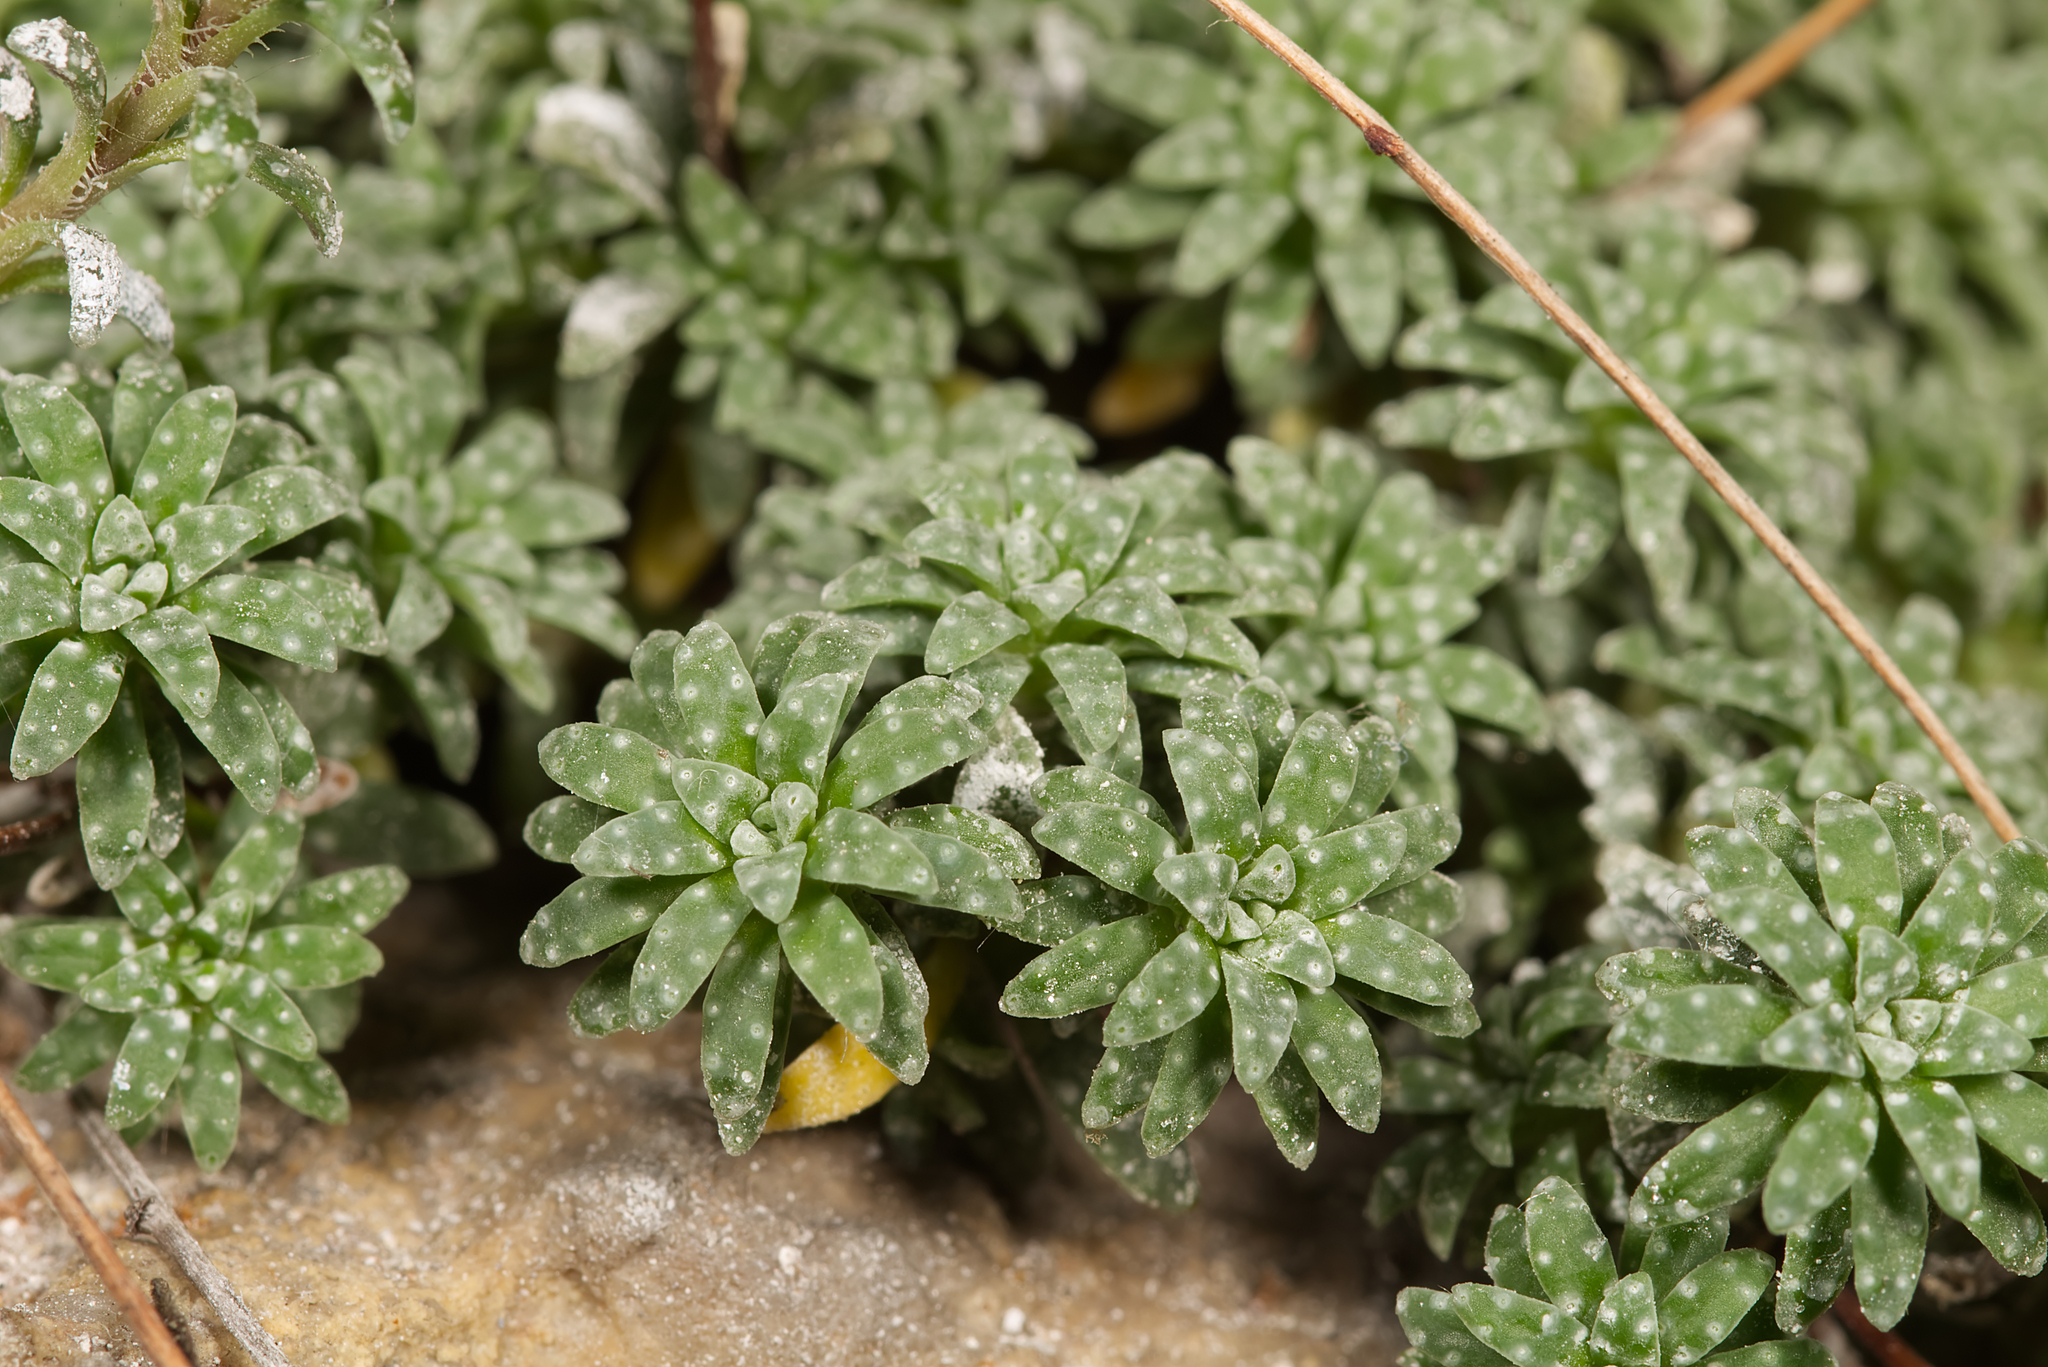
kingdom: Plantae
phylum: Tracheophyta
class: Magnoliopsida
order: Saxifragales
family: Saxifragaceae
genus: Saxifraga
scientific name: Saxifraga caesia
